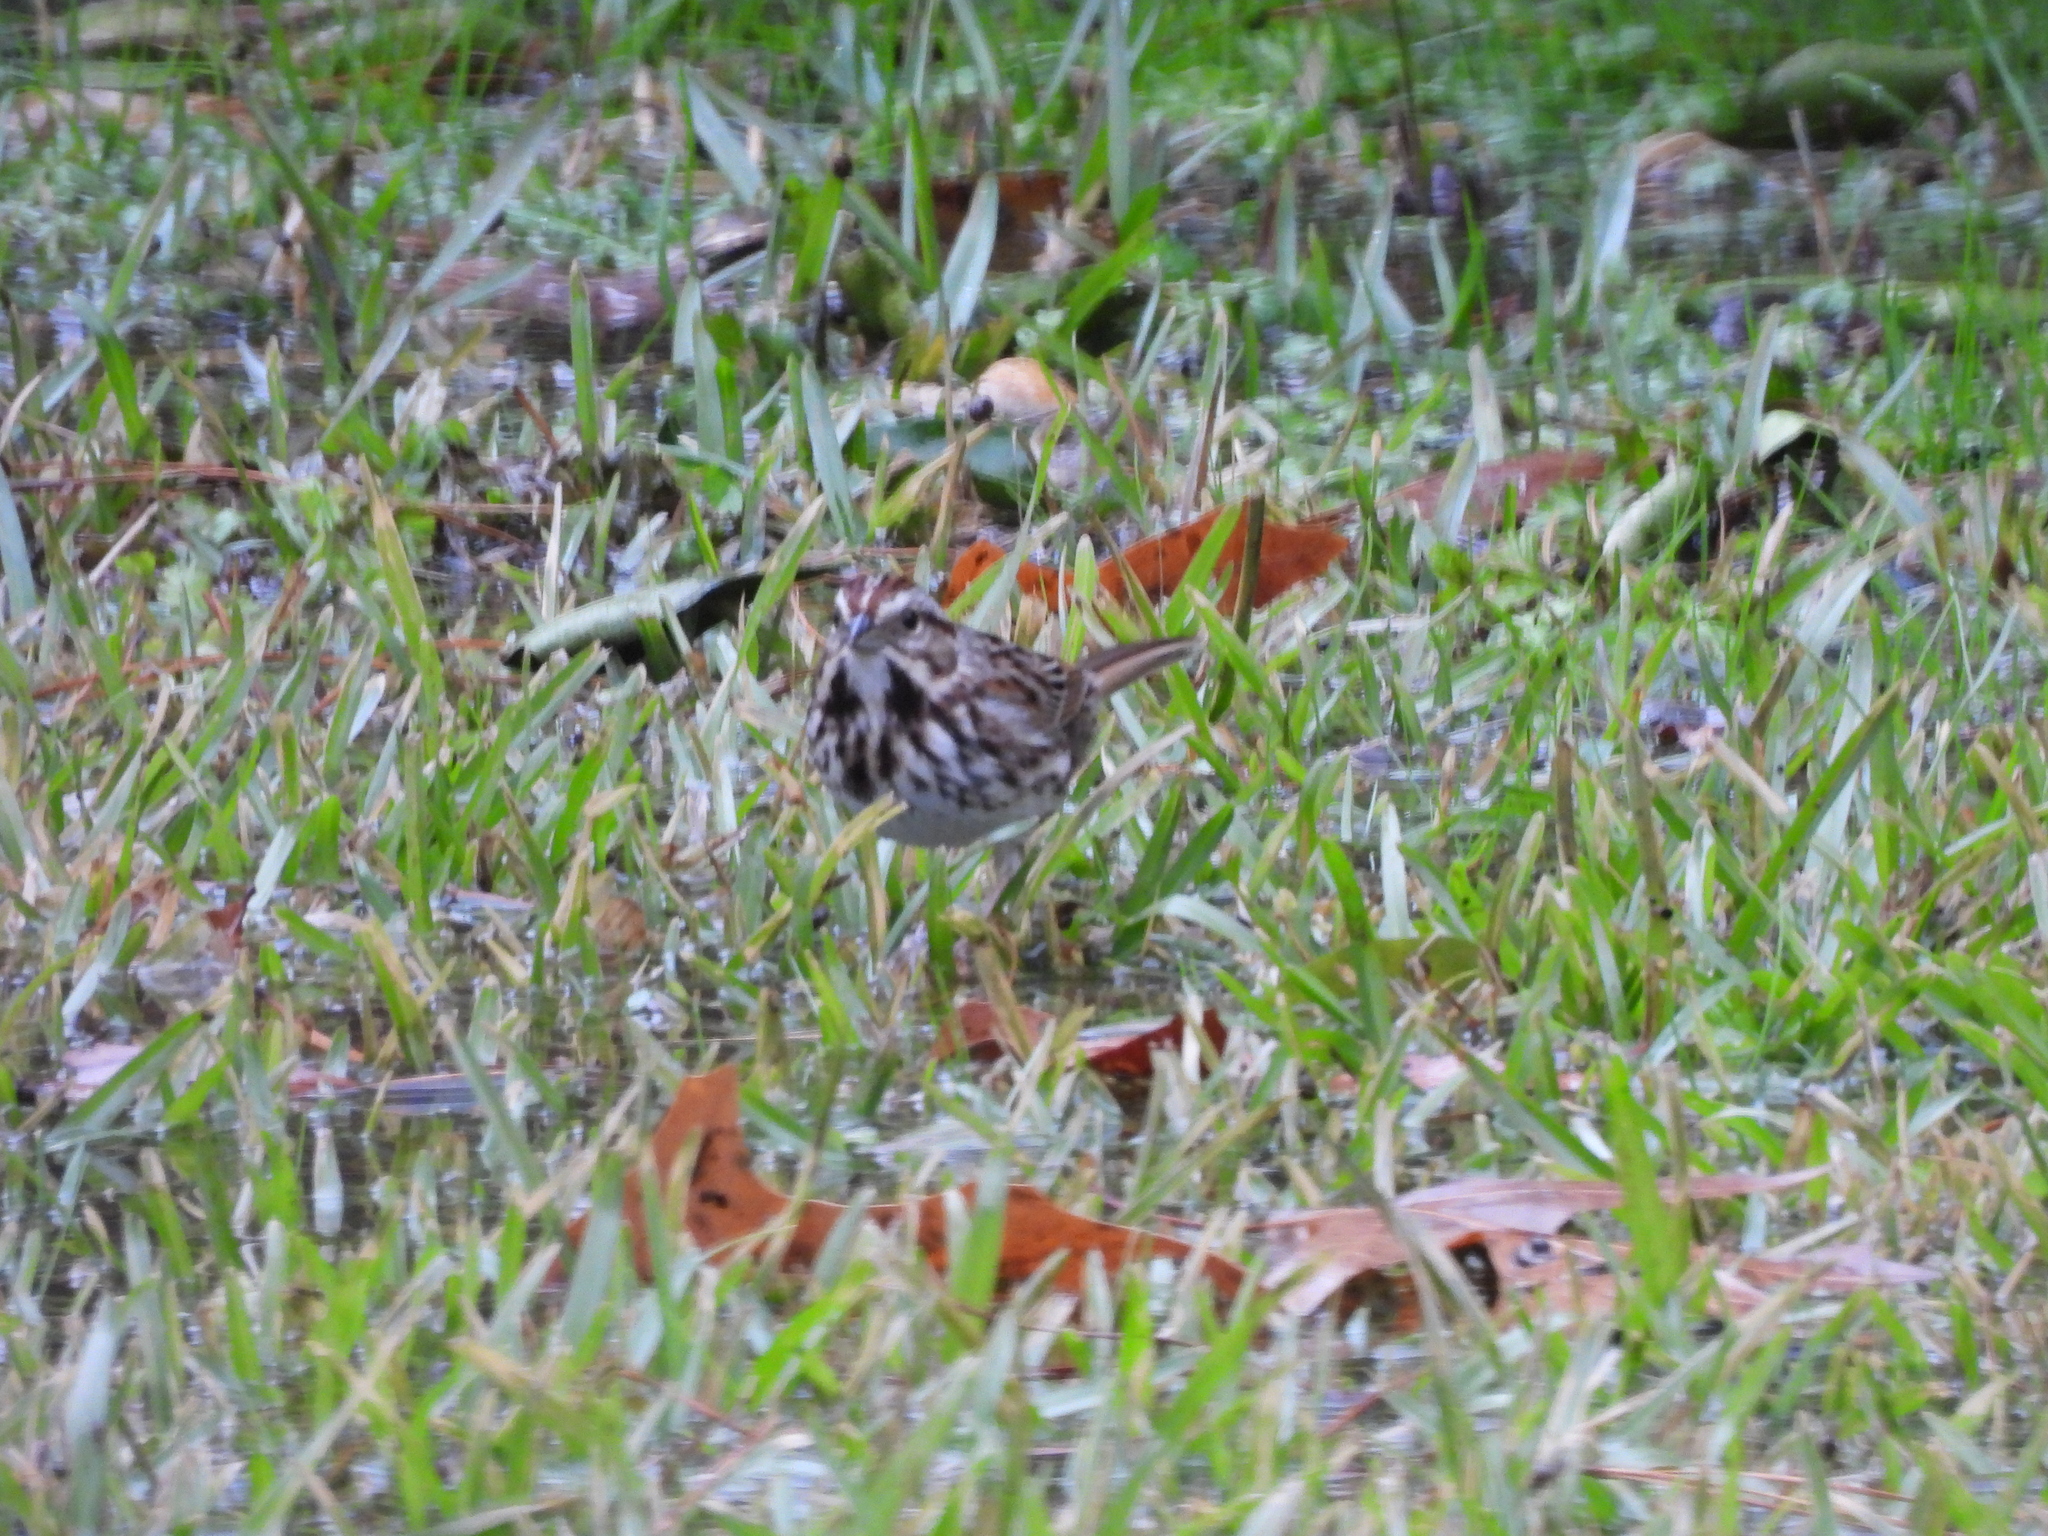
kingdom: Animalia
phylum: Chordata
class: Aves
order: Passeriformes
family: Passerellidae
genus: Melospiza
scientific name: Melospiza melodia
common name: Song sparrow
